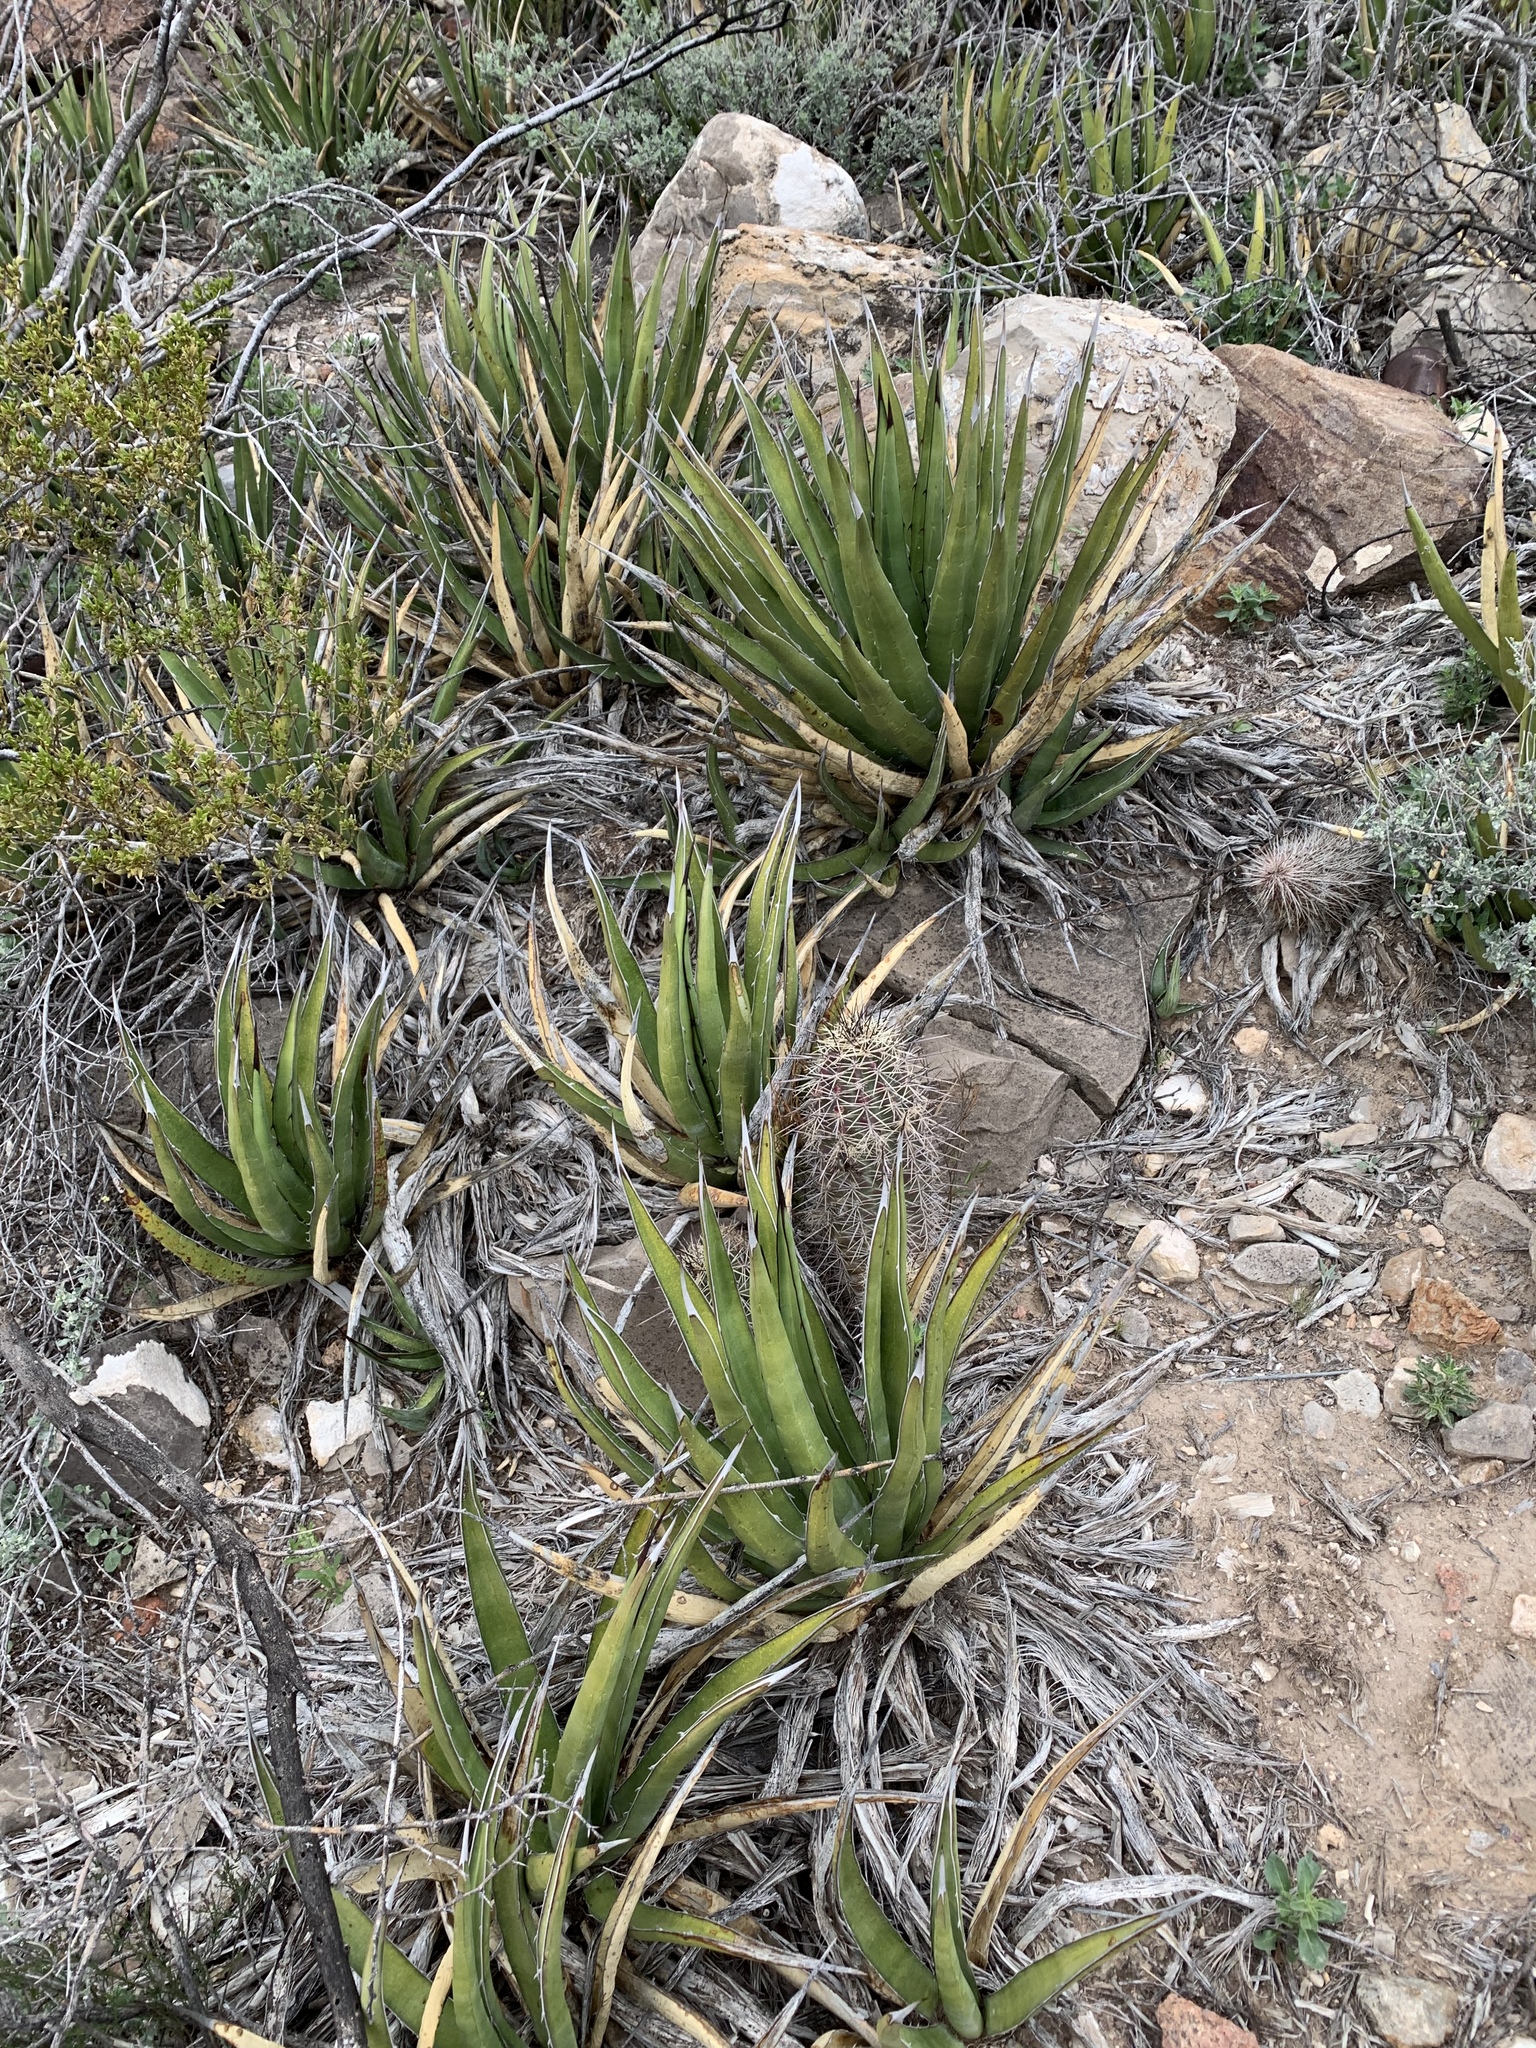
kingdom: Plantae
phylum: Tracheophyta
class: Liliopsida
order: Asparagales
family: Asparagaceae
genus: Agave
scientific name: Agave lechuguilla
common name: Lecheguilla agave
